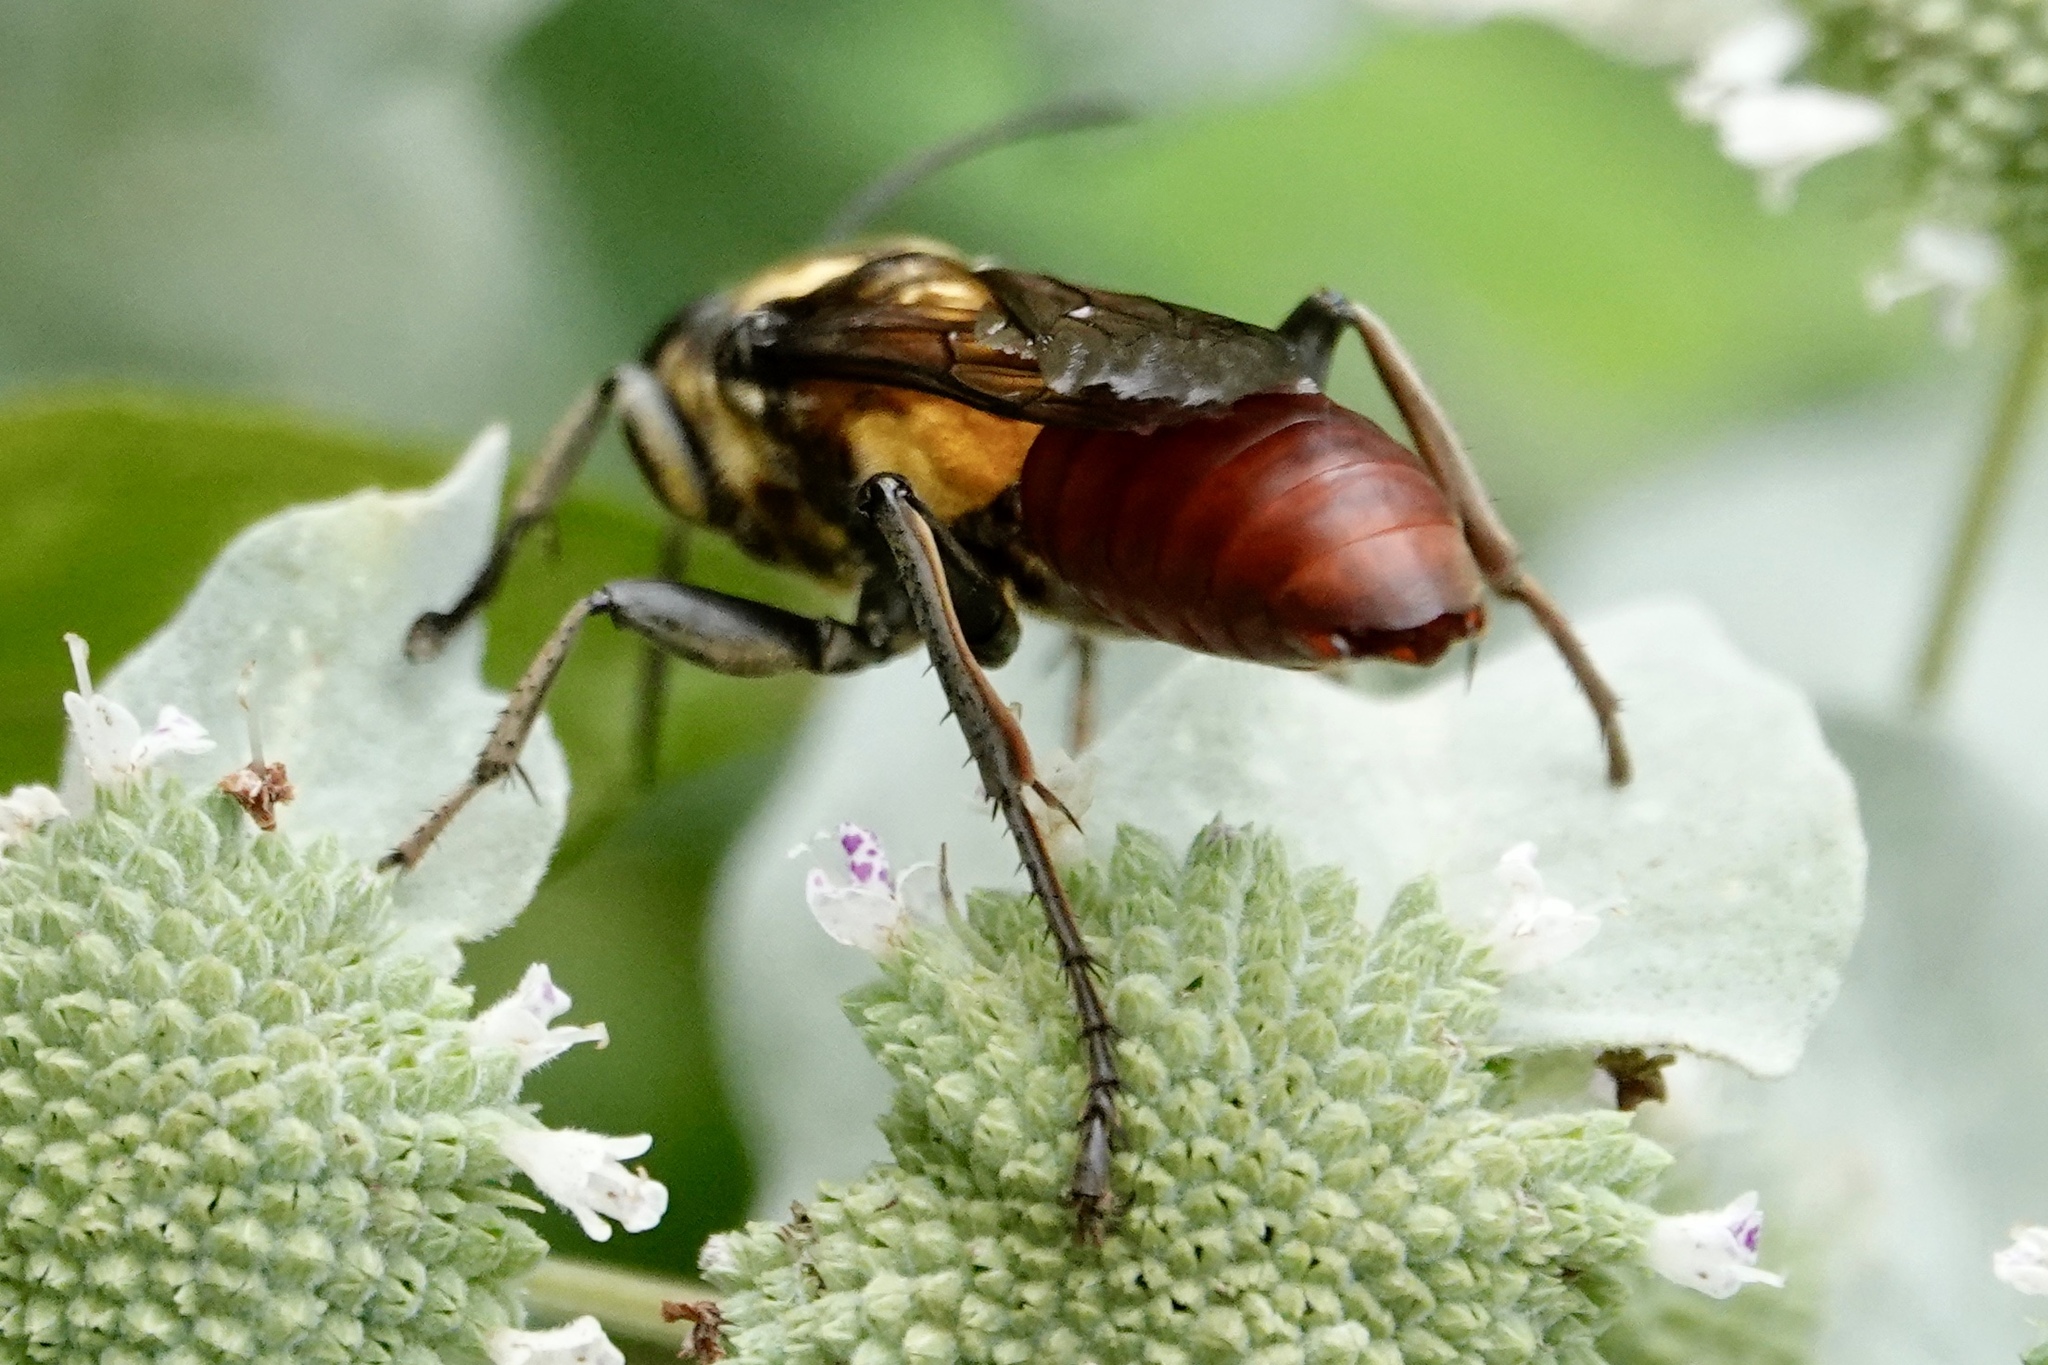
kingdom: Animalia
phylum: Arthropoda
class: Insecta
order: Hymenoptera
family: Sphecidae
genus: Sphex
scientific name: Sphex habenus
